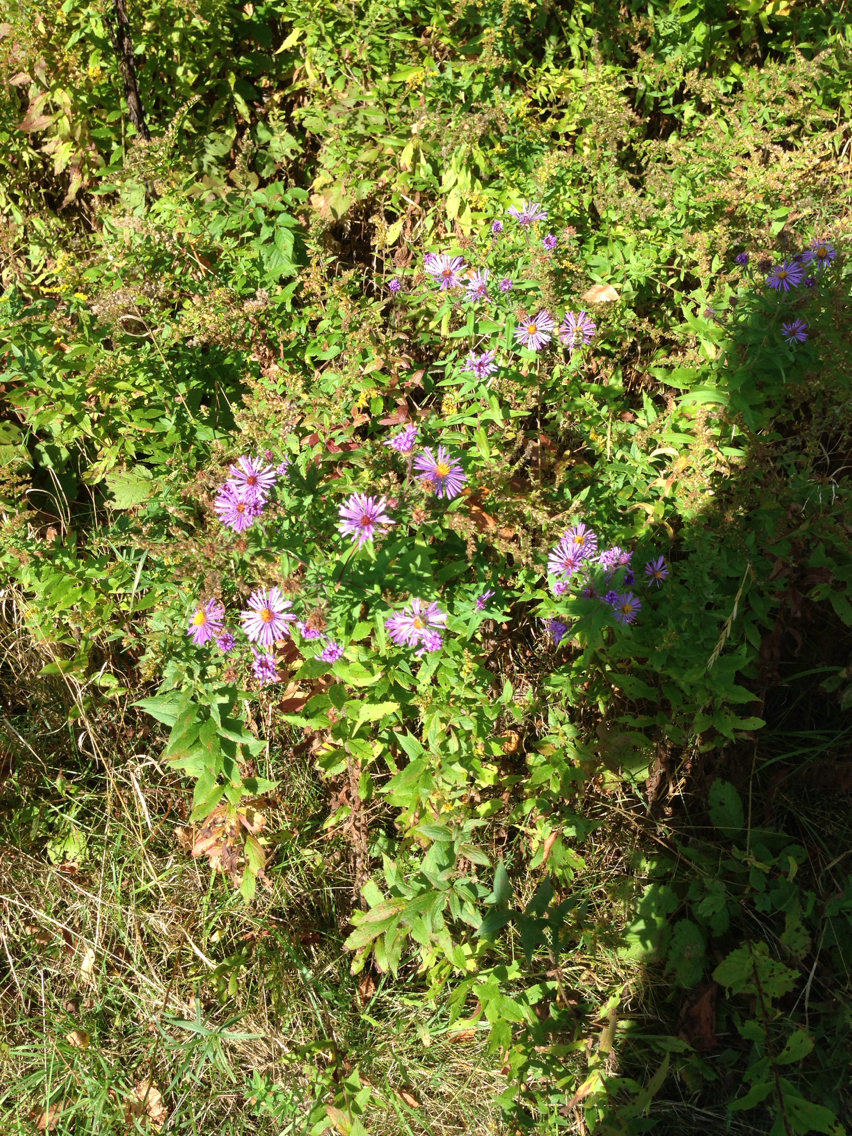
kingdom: Plantae
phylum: Tracheophyta
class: Magnoliopsida
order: Asterales
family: Asteraceae
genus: Symphyotrichum
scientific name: Symphyotrichum novae-angliae
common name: Michaelmas daisy
